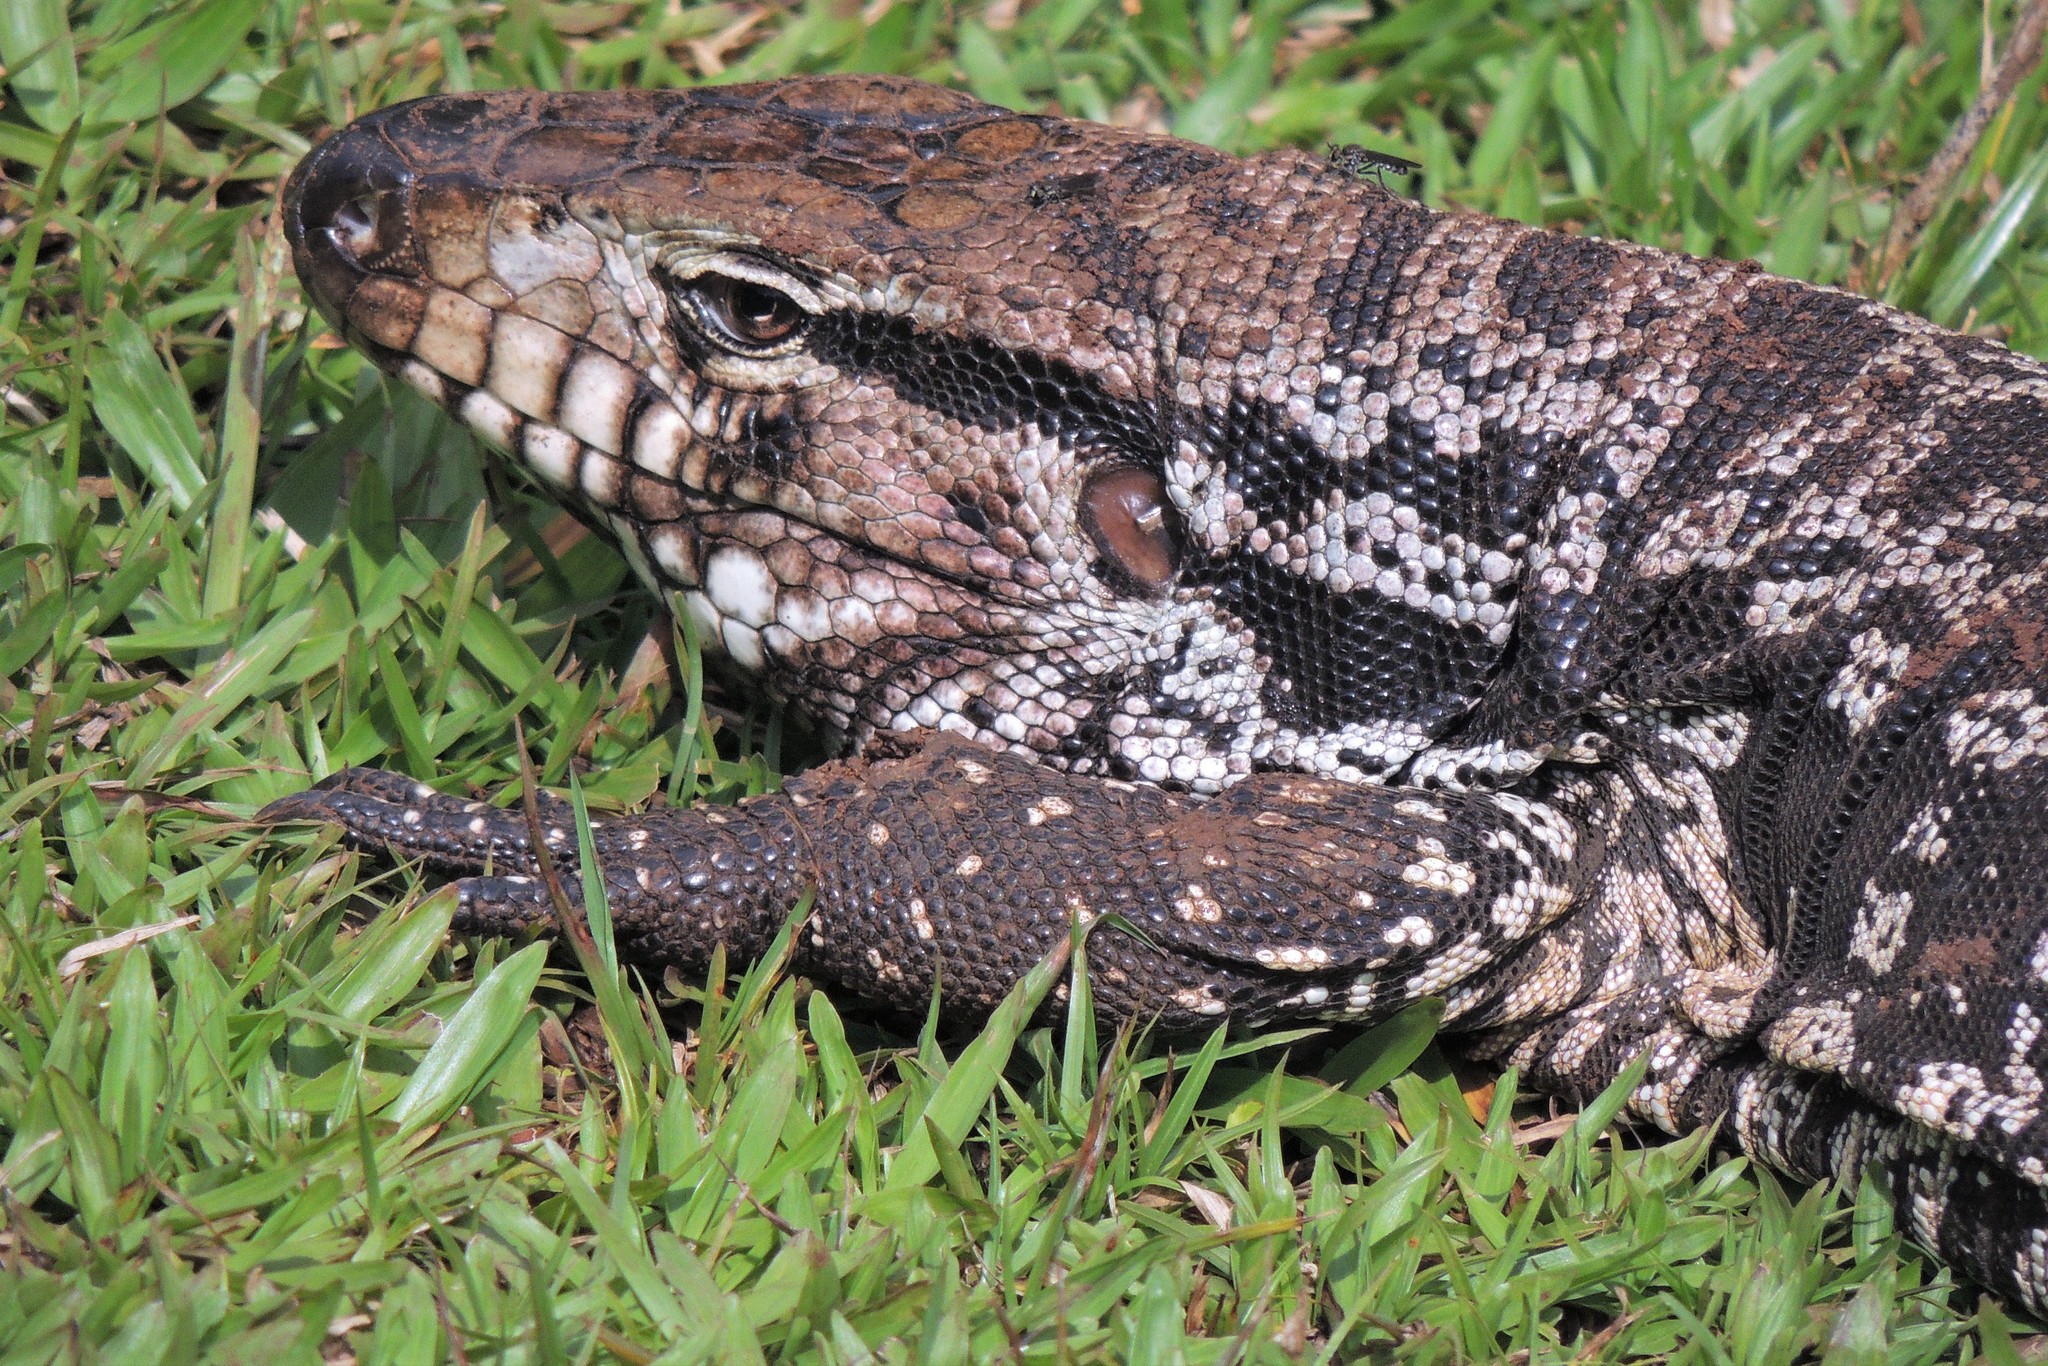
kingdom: Animalia
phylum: Chordata
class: Squamata
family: Teiidae
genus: Salvator
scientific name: Salvator merianae
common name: Argentine black and white tegu
